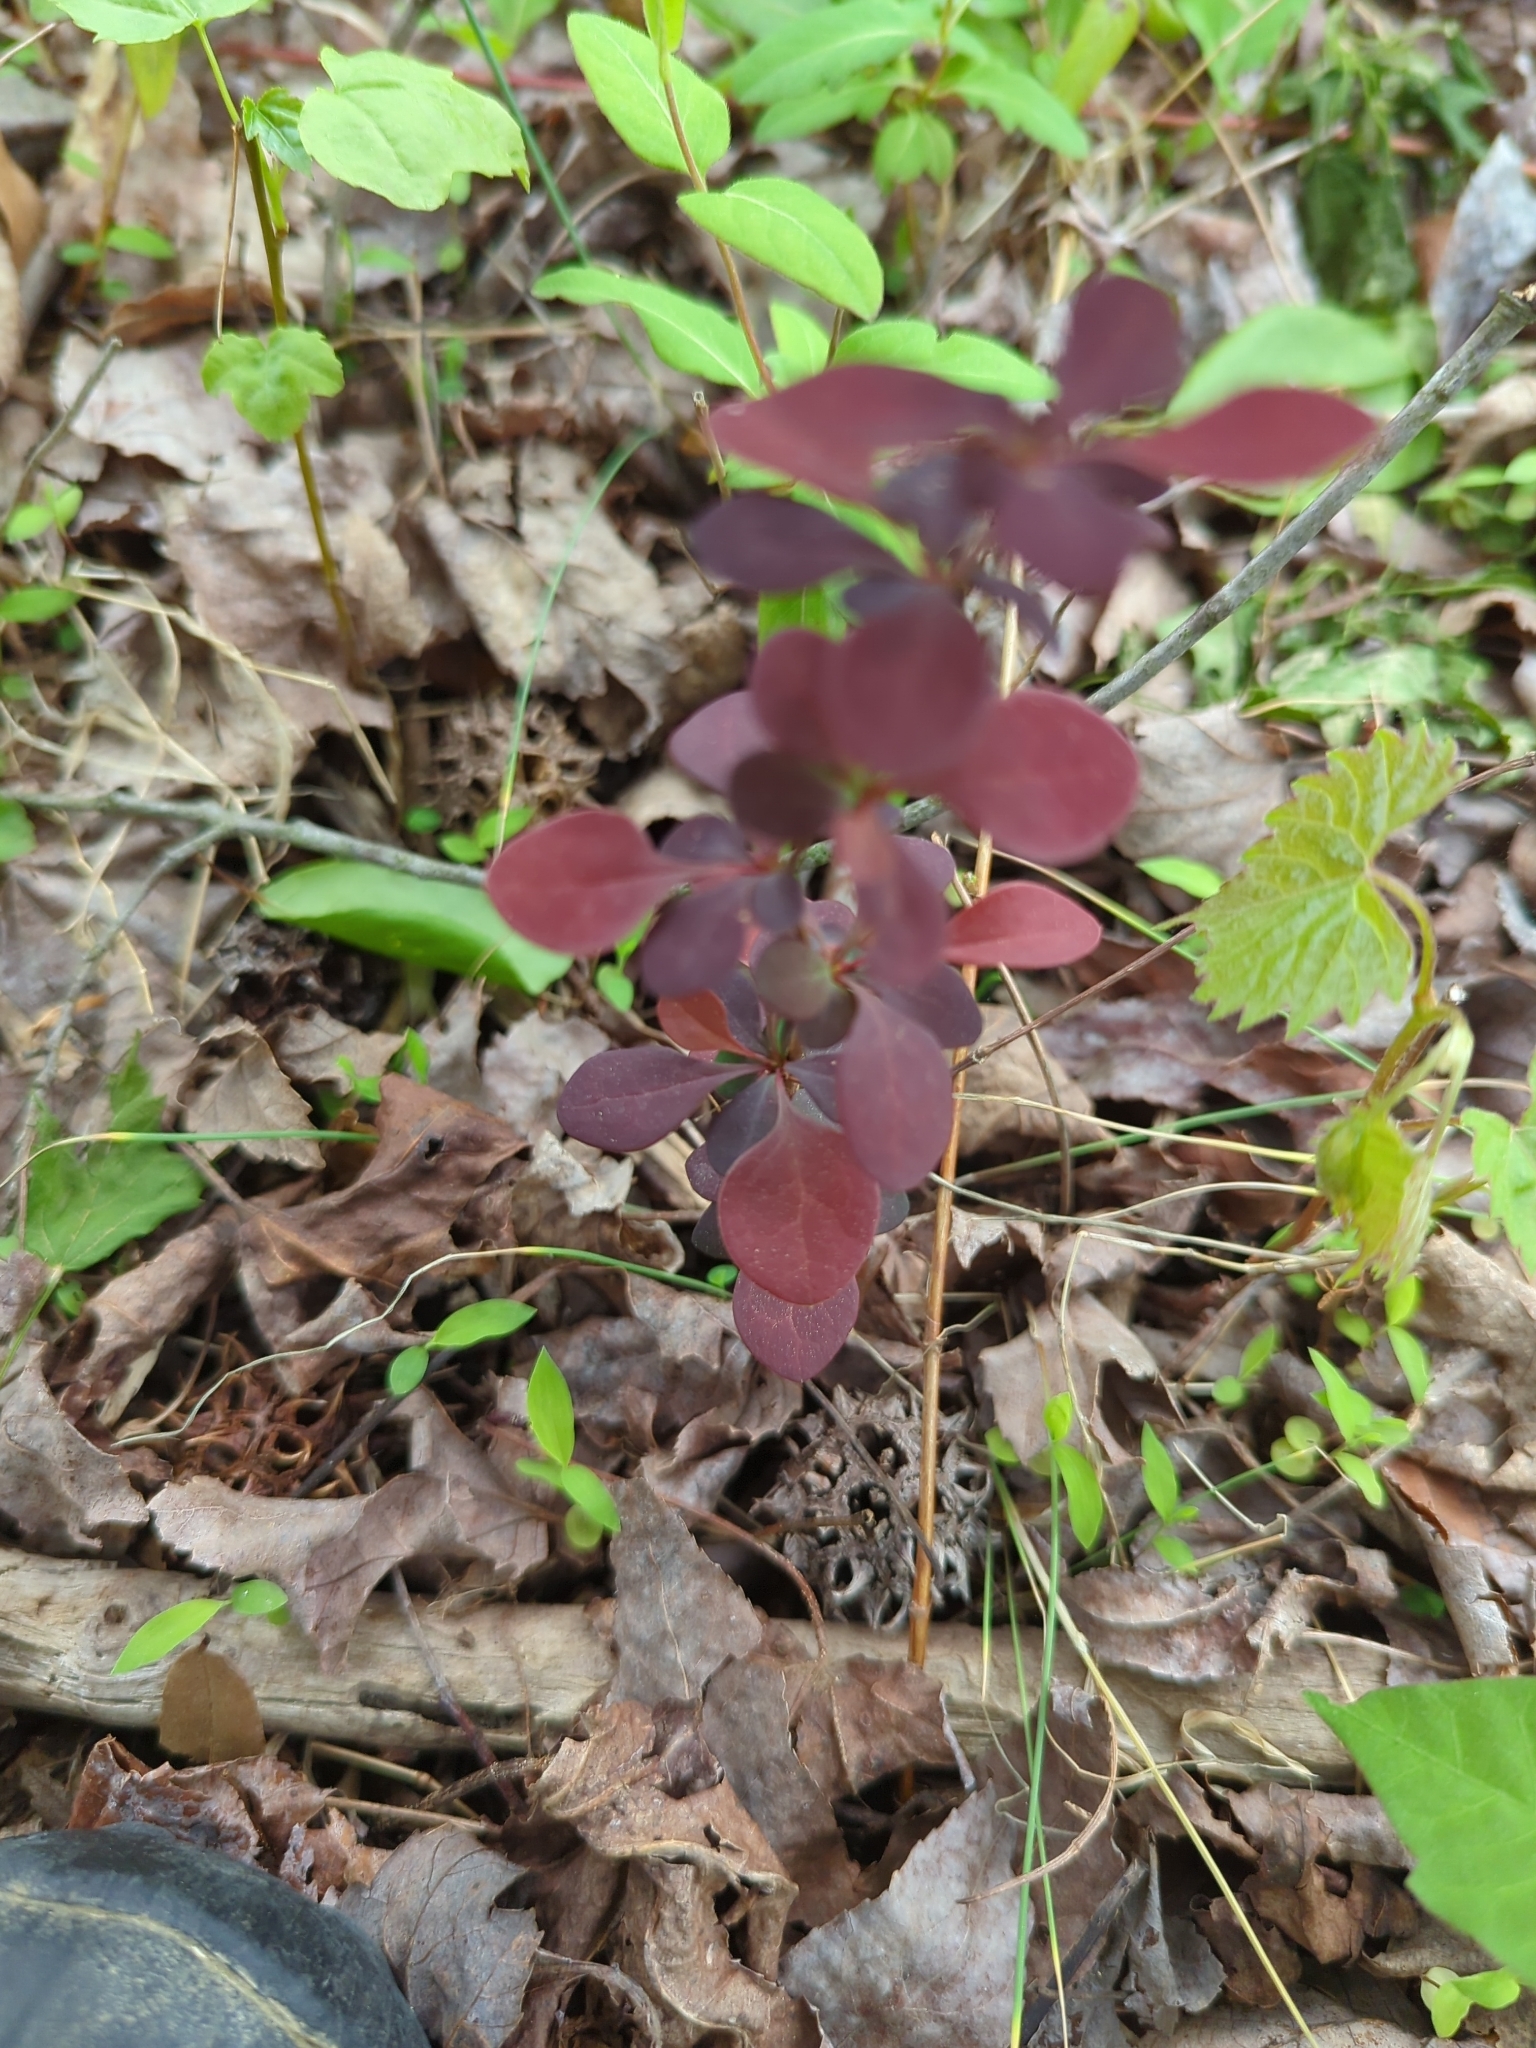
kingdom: Plantae
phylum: Tracheophyta
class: Magnoliopsida
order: Ranunculales
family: Berberidaceae
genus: Berberis
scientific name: Berberis thunbergii
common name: Japanese barberry
